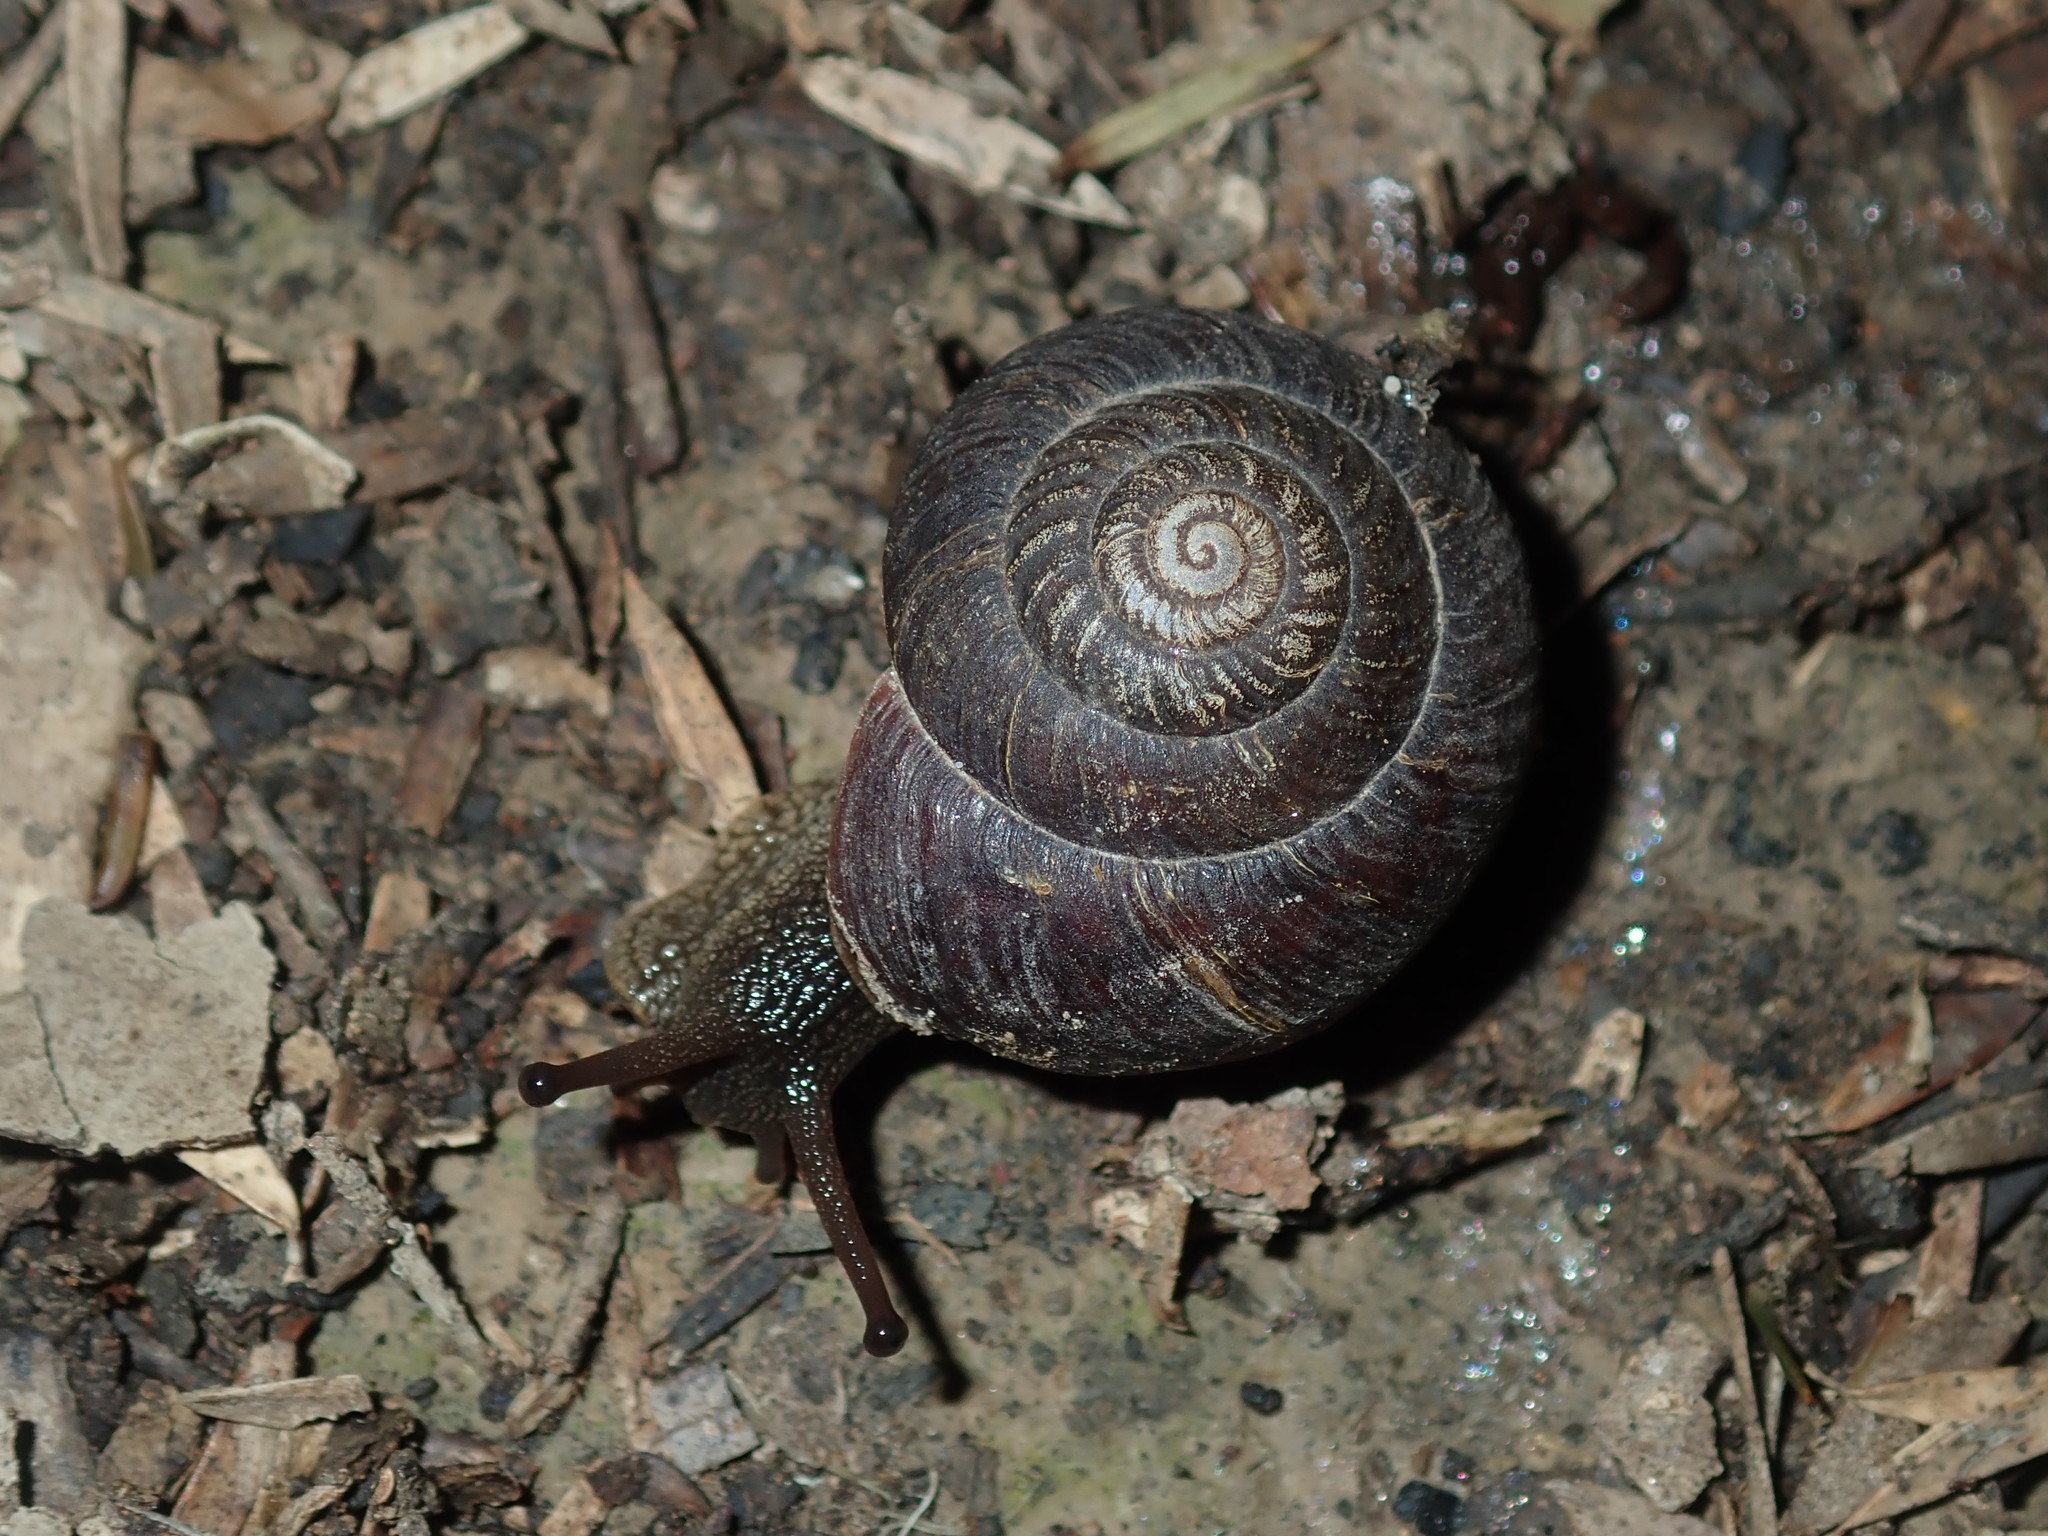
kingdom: Animalia
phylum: Mollusca
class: Gastropoda
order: Stylommatophora
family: Camaenidae
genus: Sauroconcha
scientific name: Sauroconcha sheai
